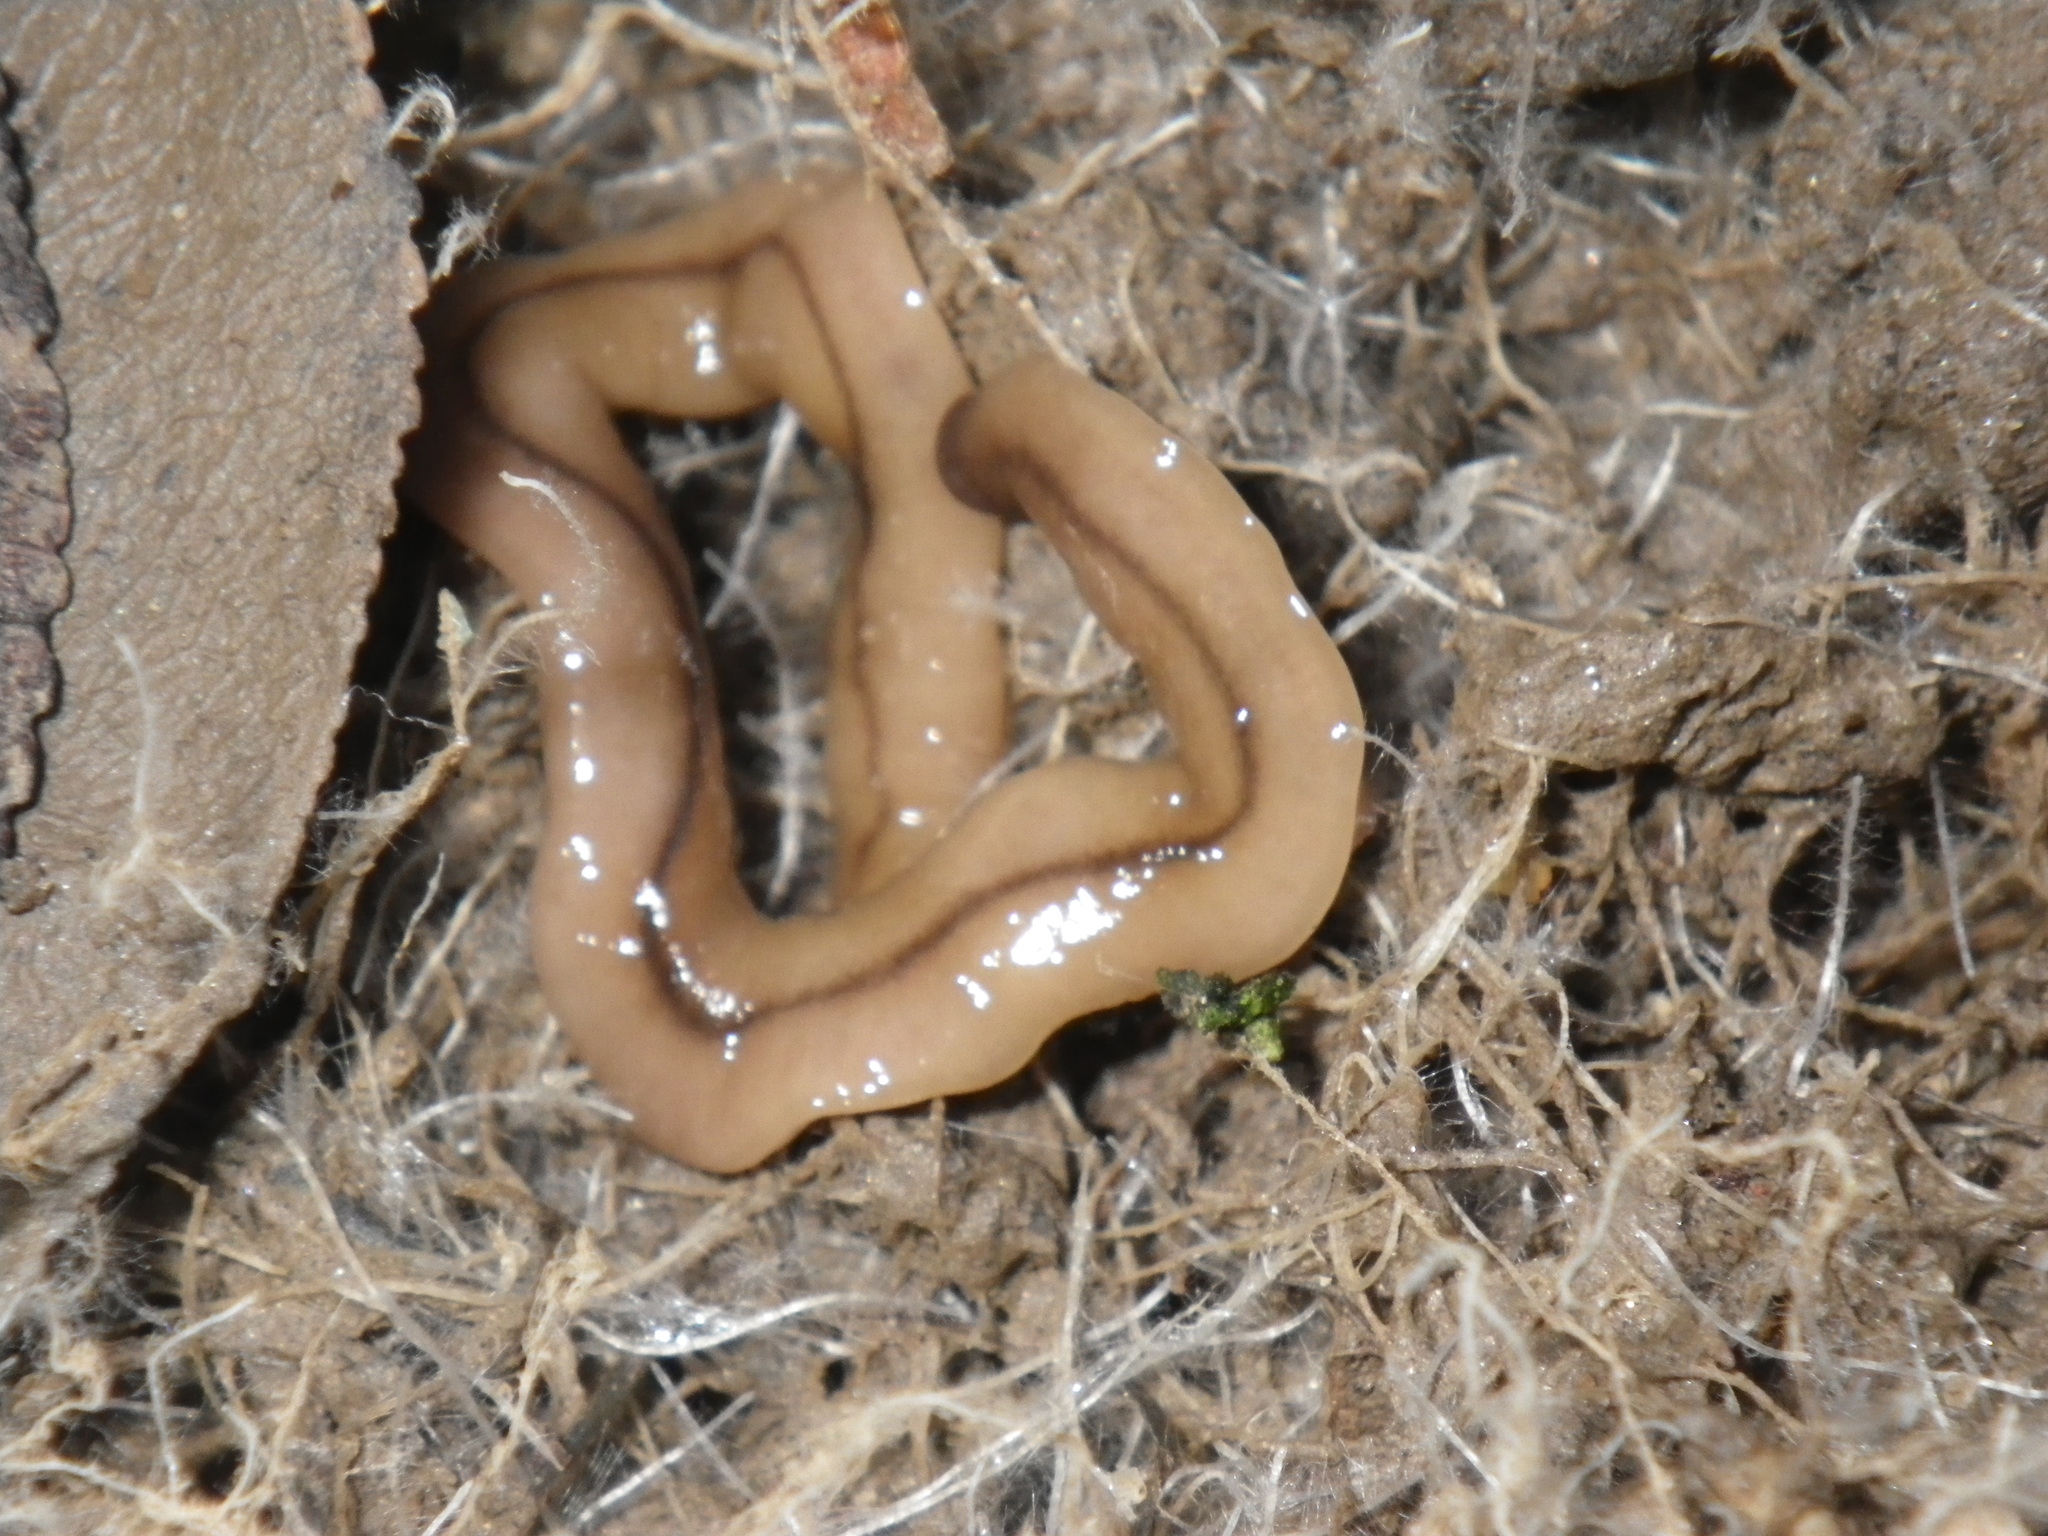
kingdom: Animalia
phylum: Platyhelminthes
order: Tricladida
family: Geoplanidae
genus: Bipalium
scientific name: Bipalium adventitium
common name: Land planarian
